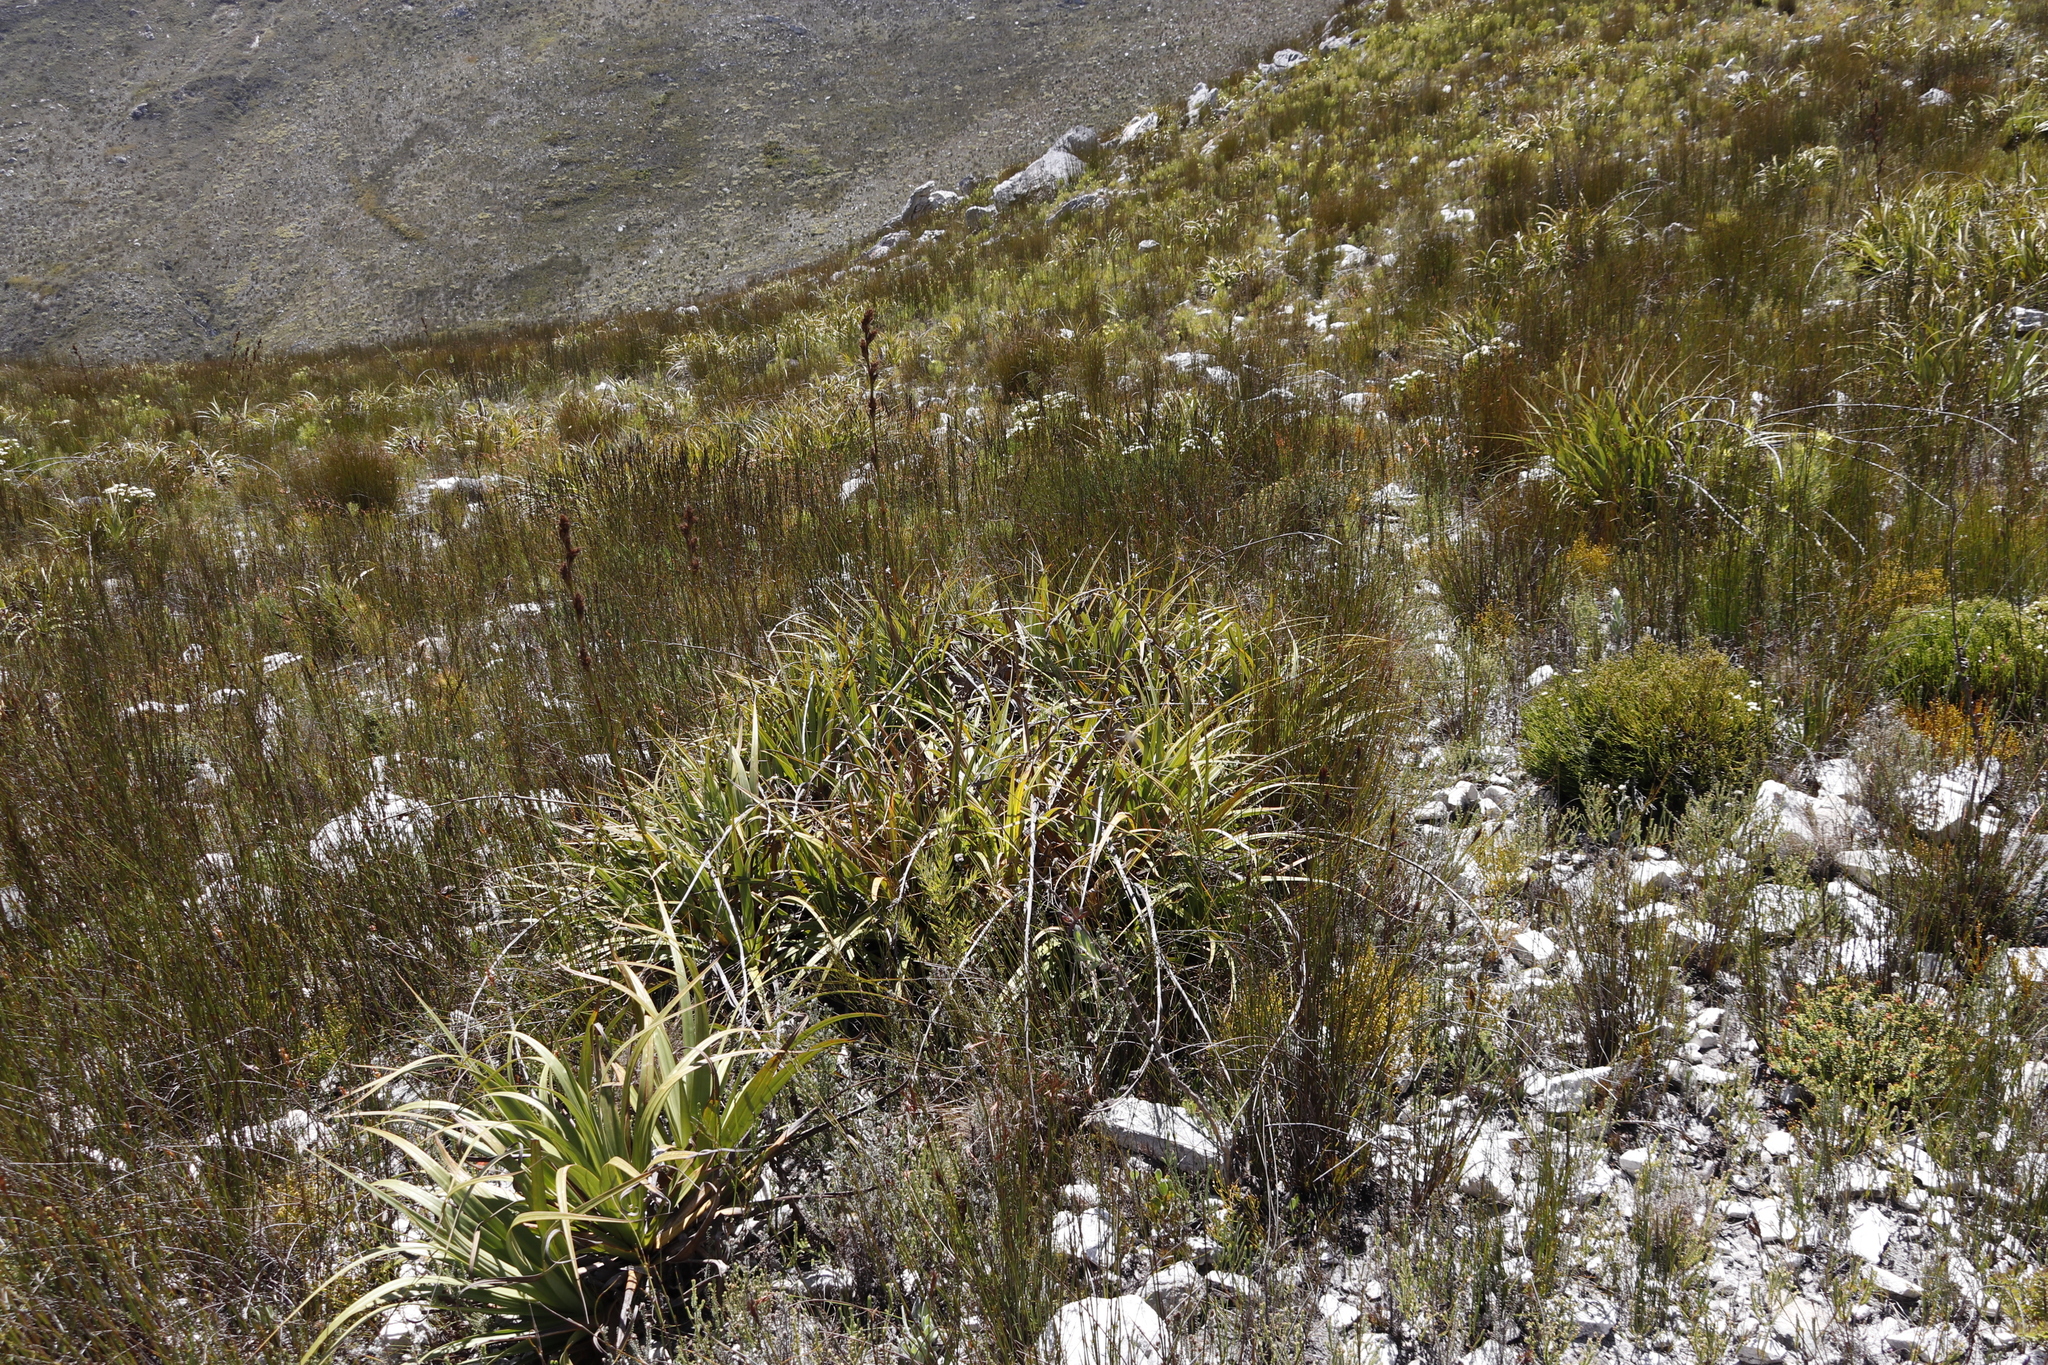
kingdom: Plantae
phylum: Tracheophyta
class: Liliopsida
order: Poales
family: Cyperaceae
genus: Tetraria
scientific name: Tetraria thermalis
